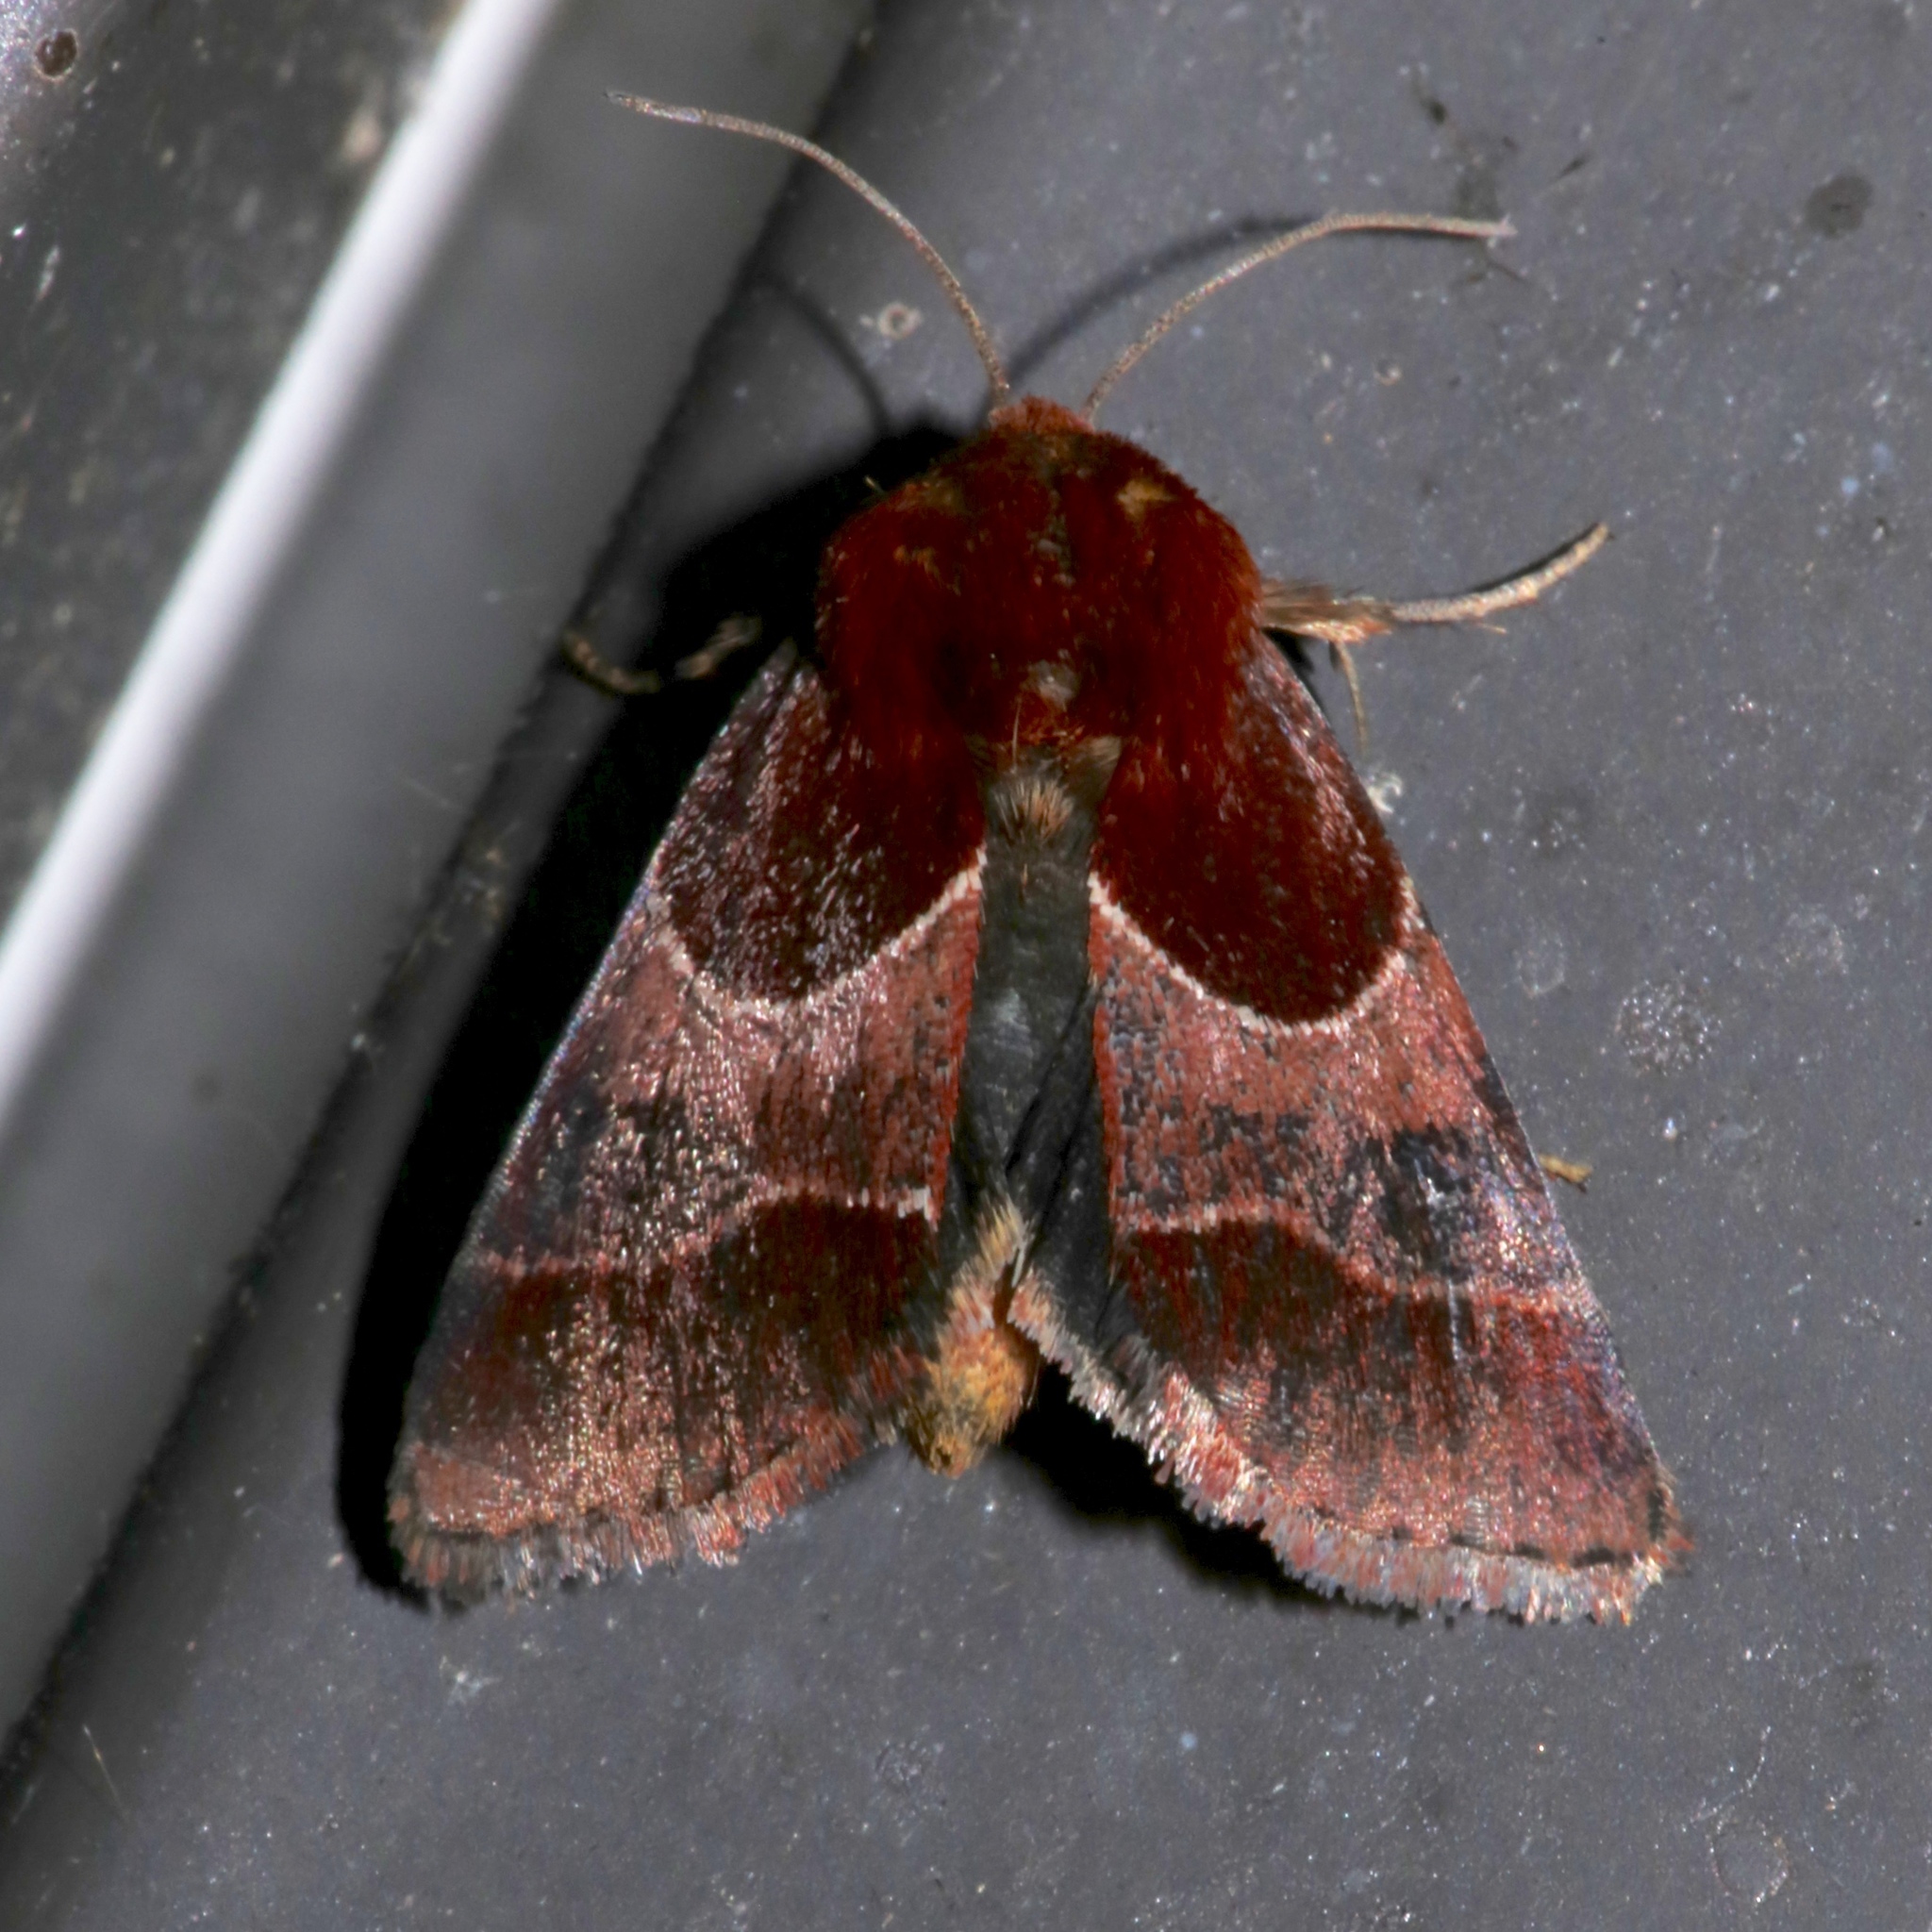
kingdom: Animalia
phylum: Arthropoda
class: Insecta
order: Lepidoptera
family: Noctuidae
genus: Schinia
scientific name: Schinia arcigera
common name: Arcigera flower moth
